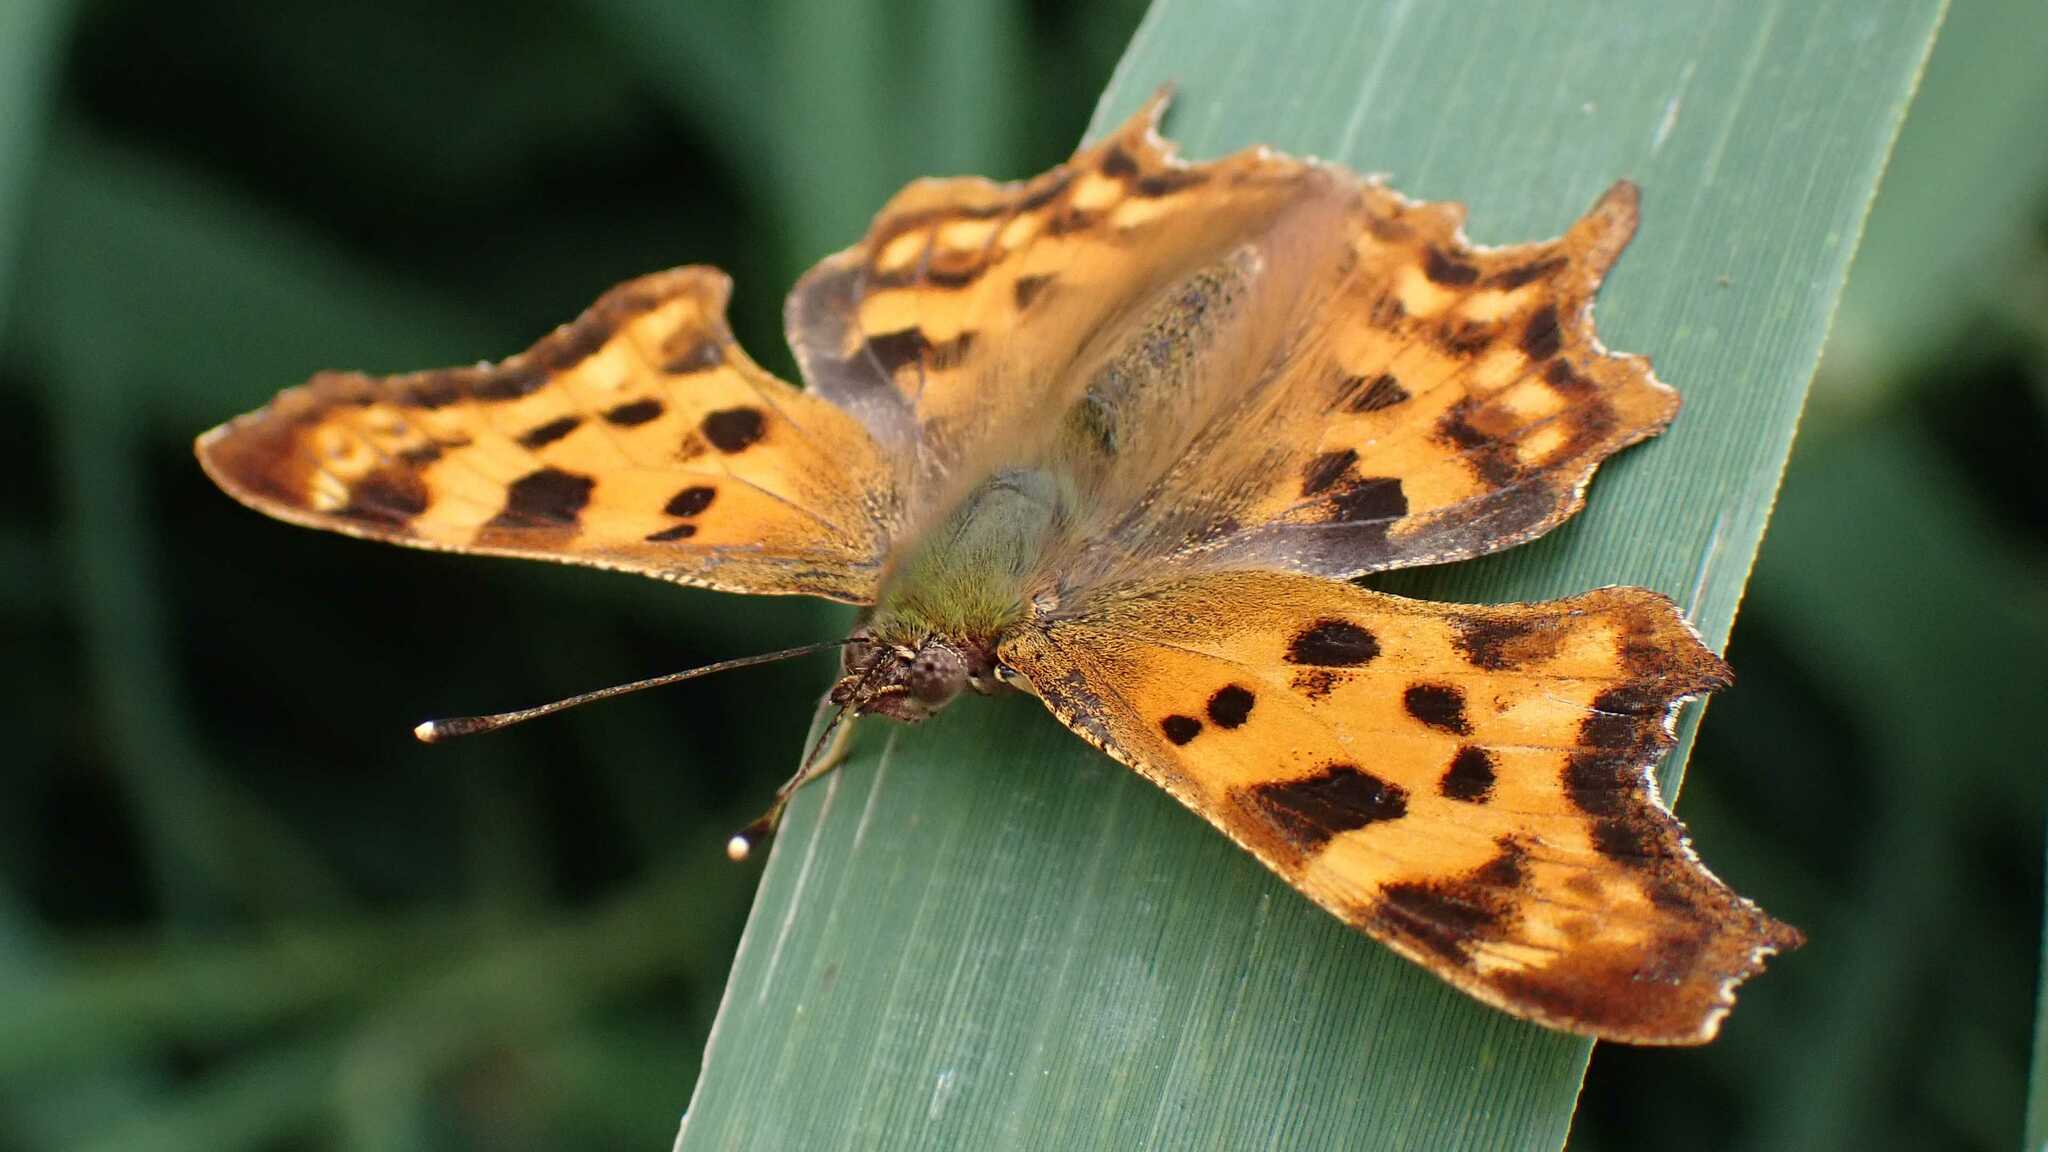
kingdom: Animalia
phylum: Arthropoda
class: Insecta
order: Lepidoptera
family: Nymphalidae
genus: Polygonia
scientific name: Polygonia c-album
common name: Comma
